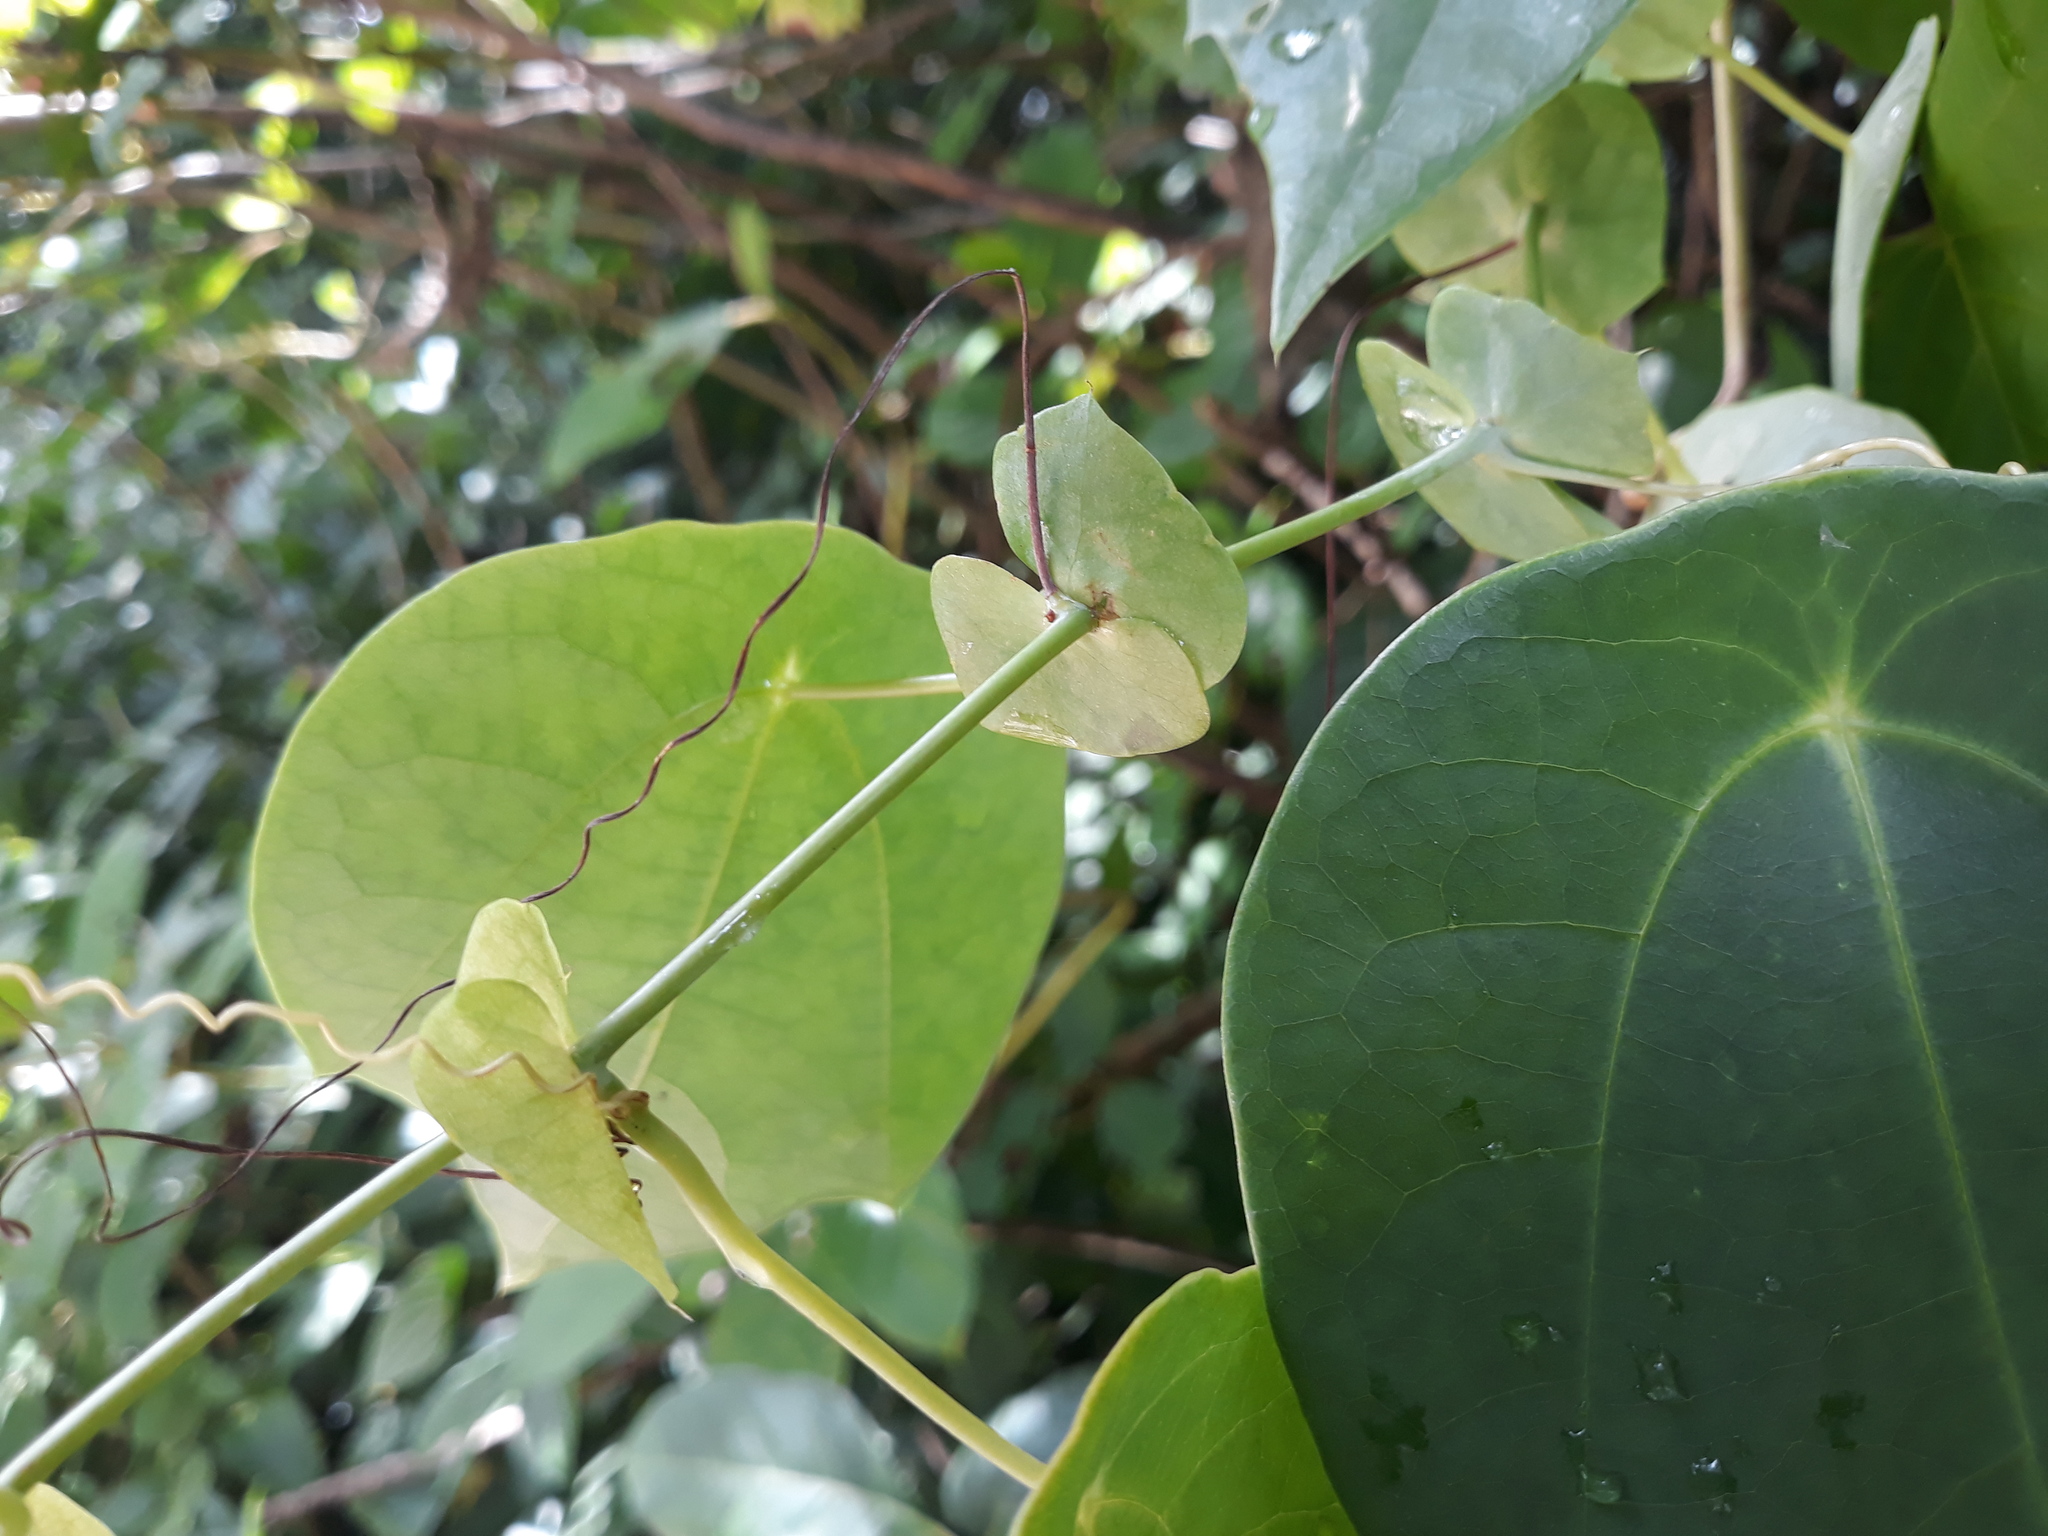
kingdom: Plantae
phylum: Tracheophyta
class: Magnoliopsida
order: Malpighiales
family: Passifloraceae
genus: Passiflora
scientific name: Passiflora hahnii
